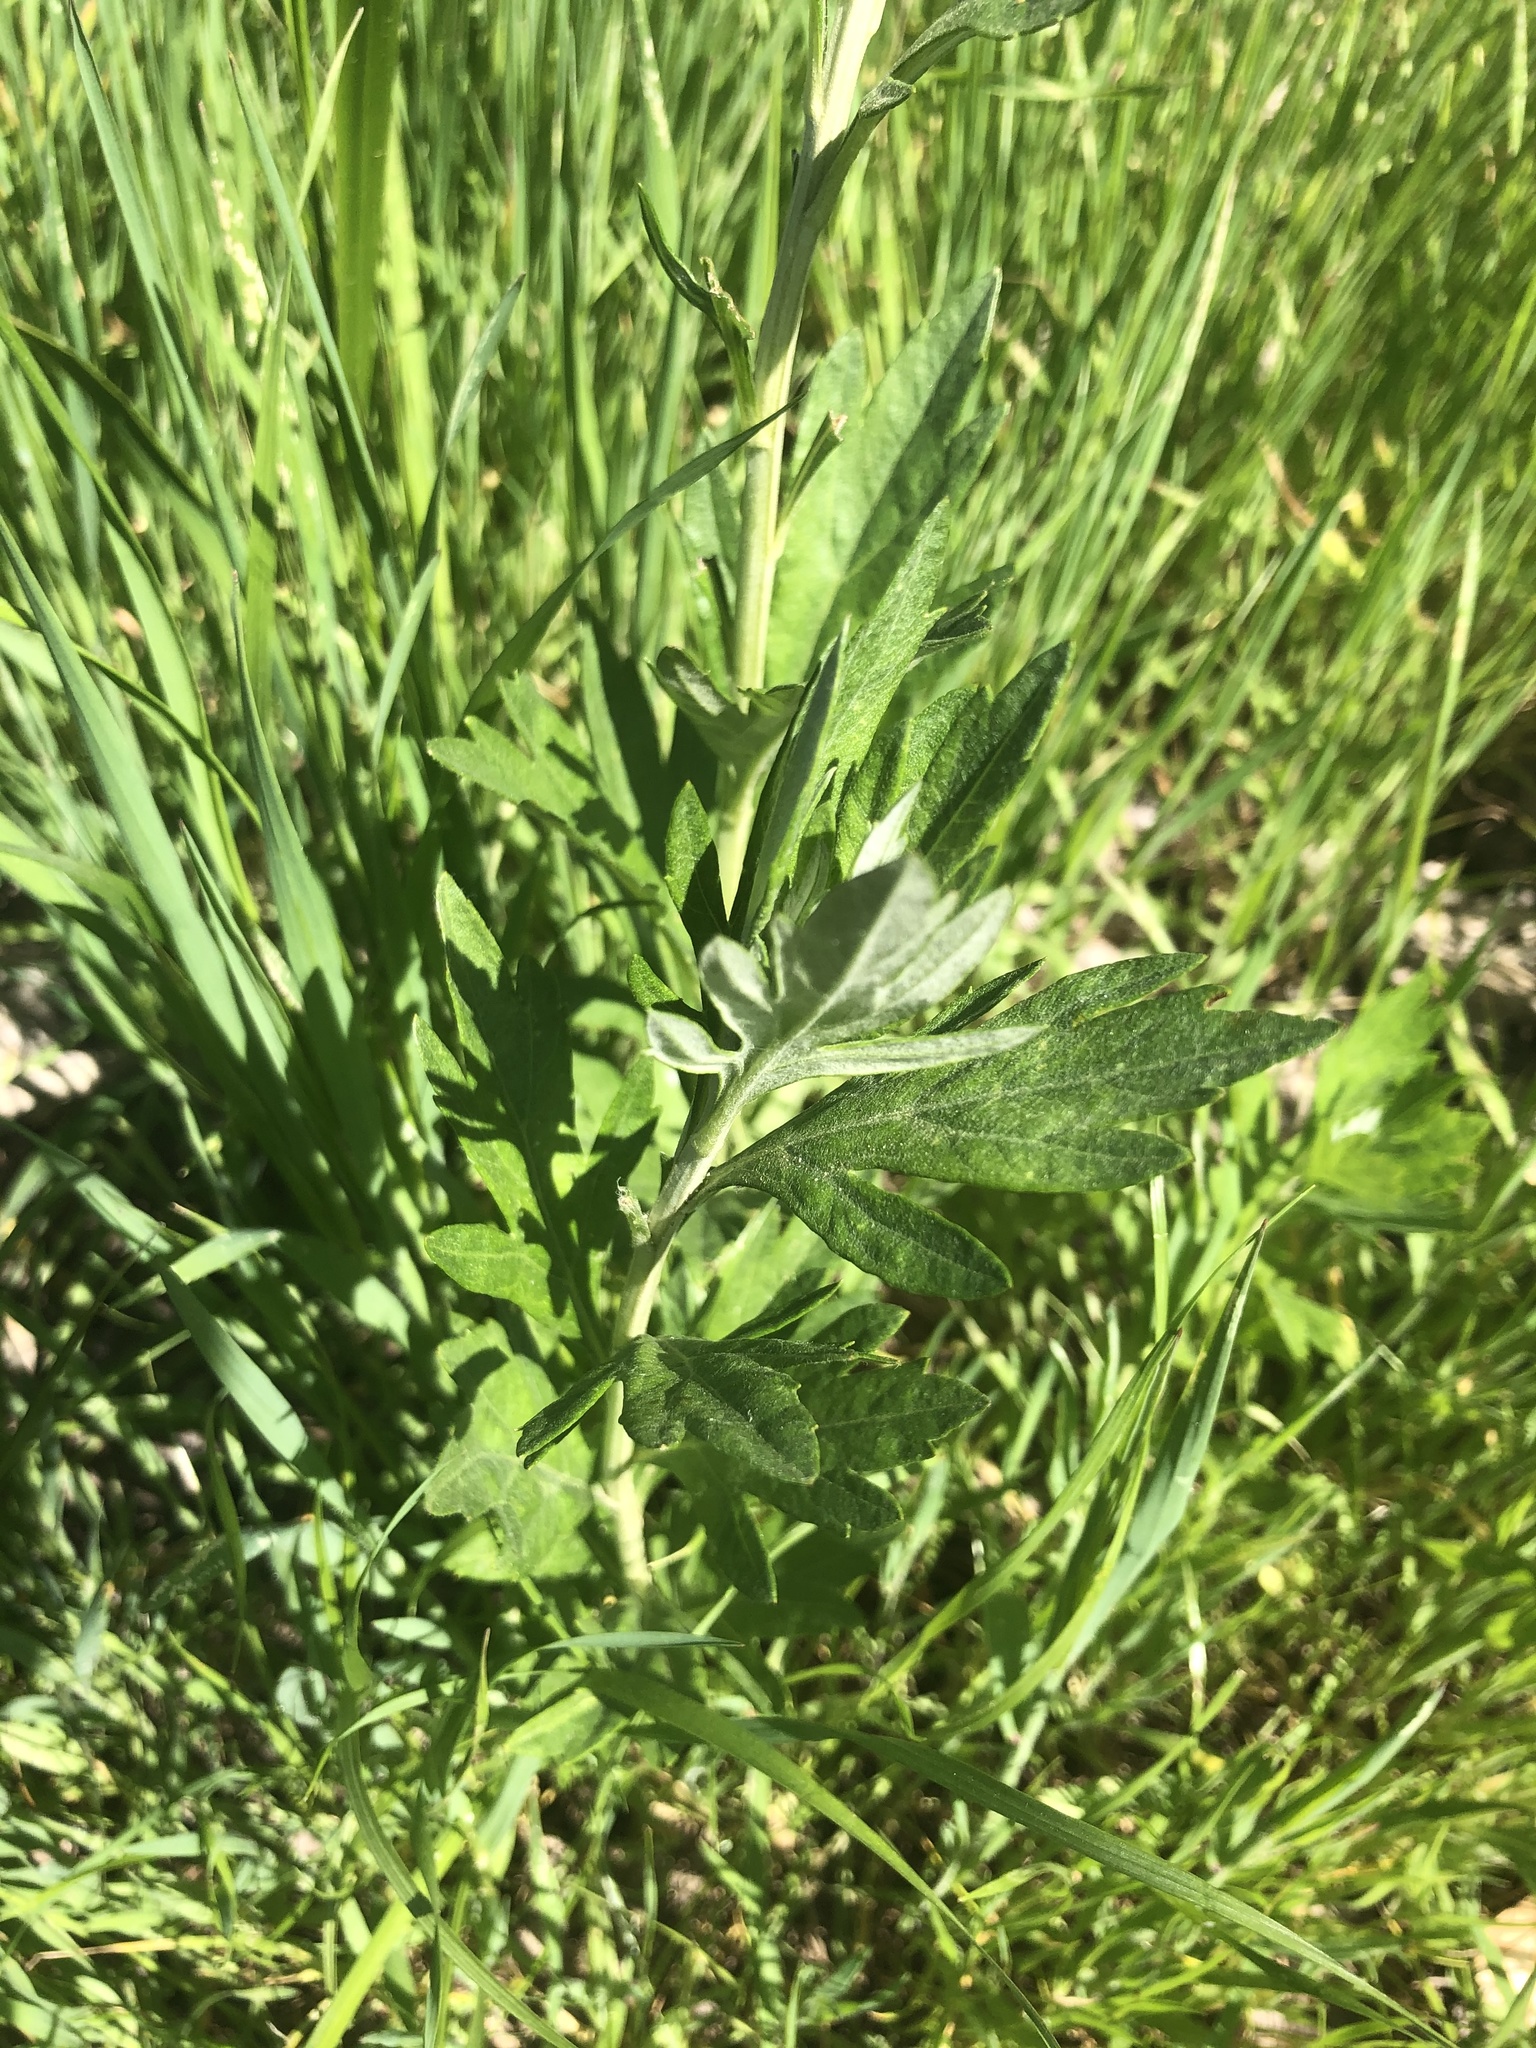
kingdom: Plantae
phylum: Tracheophyta
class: Magnoliopsida
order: Asterales
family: Asteraceae
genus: Artemisia
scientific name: Artemisia douglasiana
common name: Northwest mugwort
